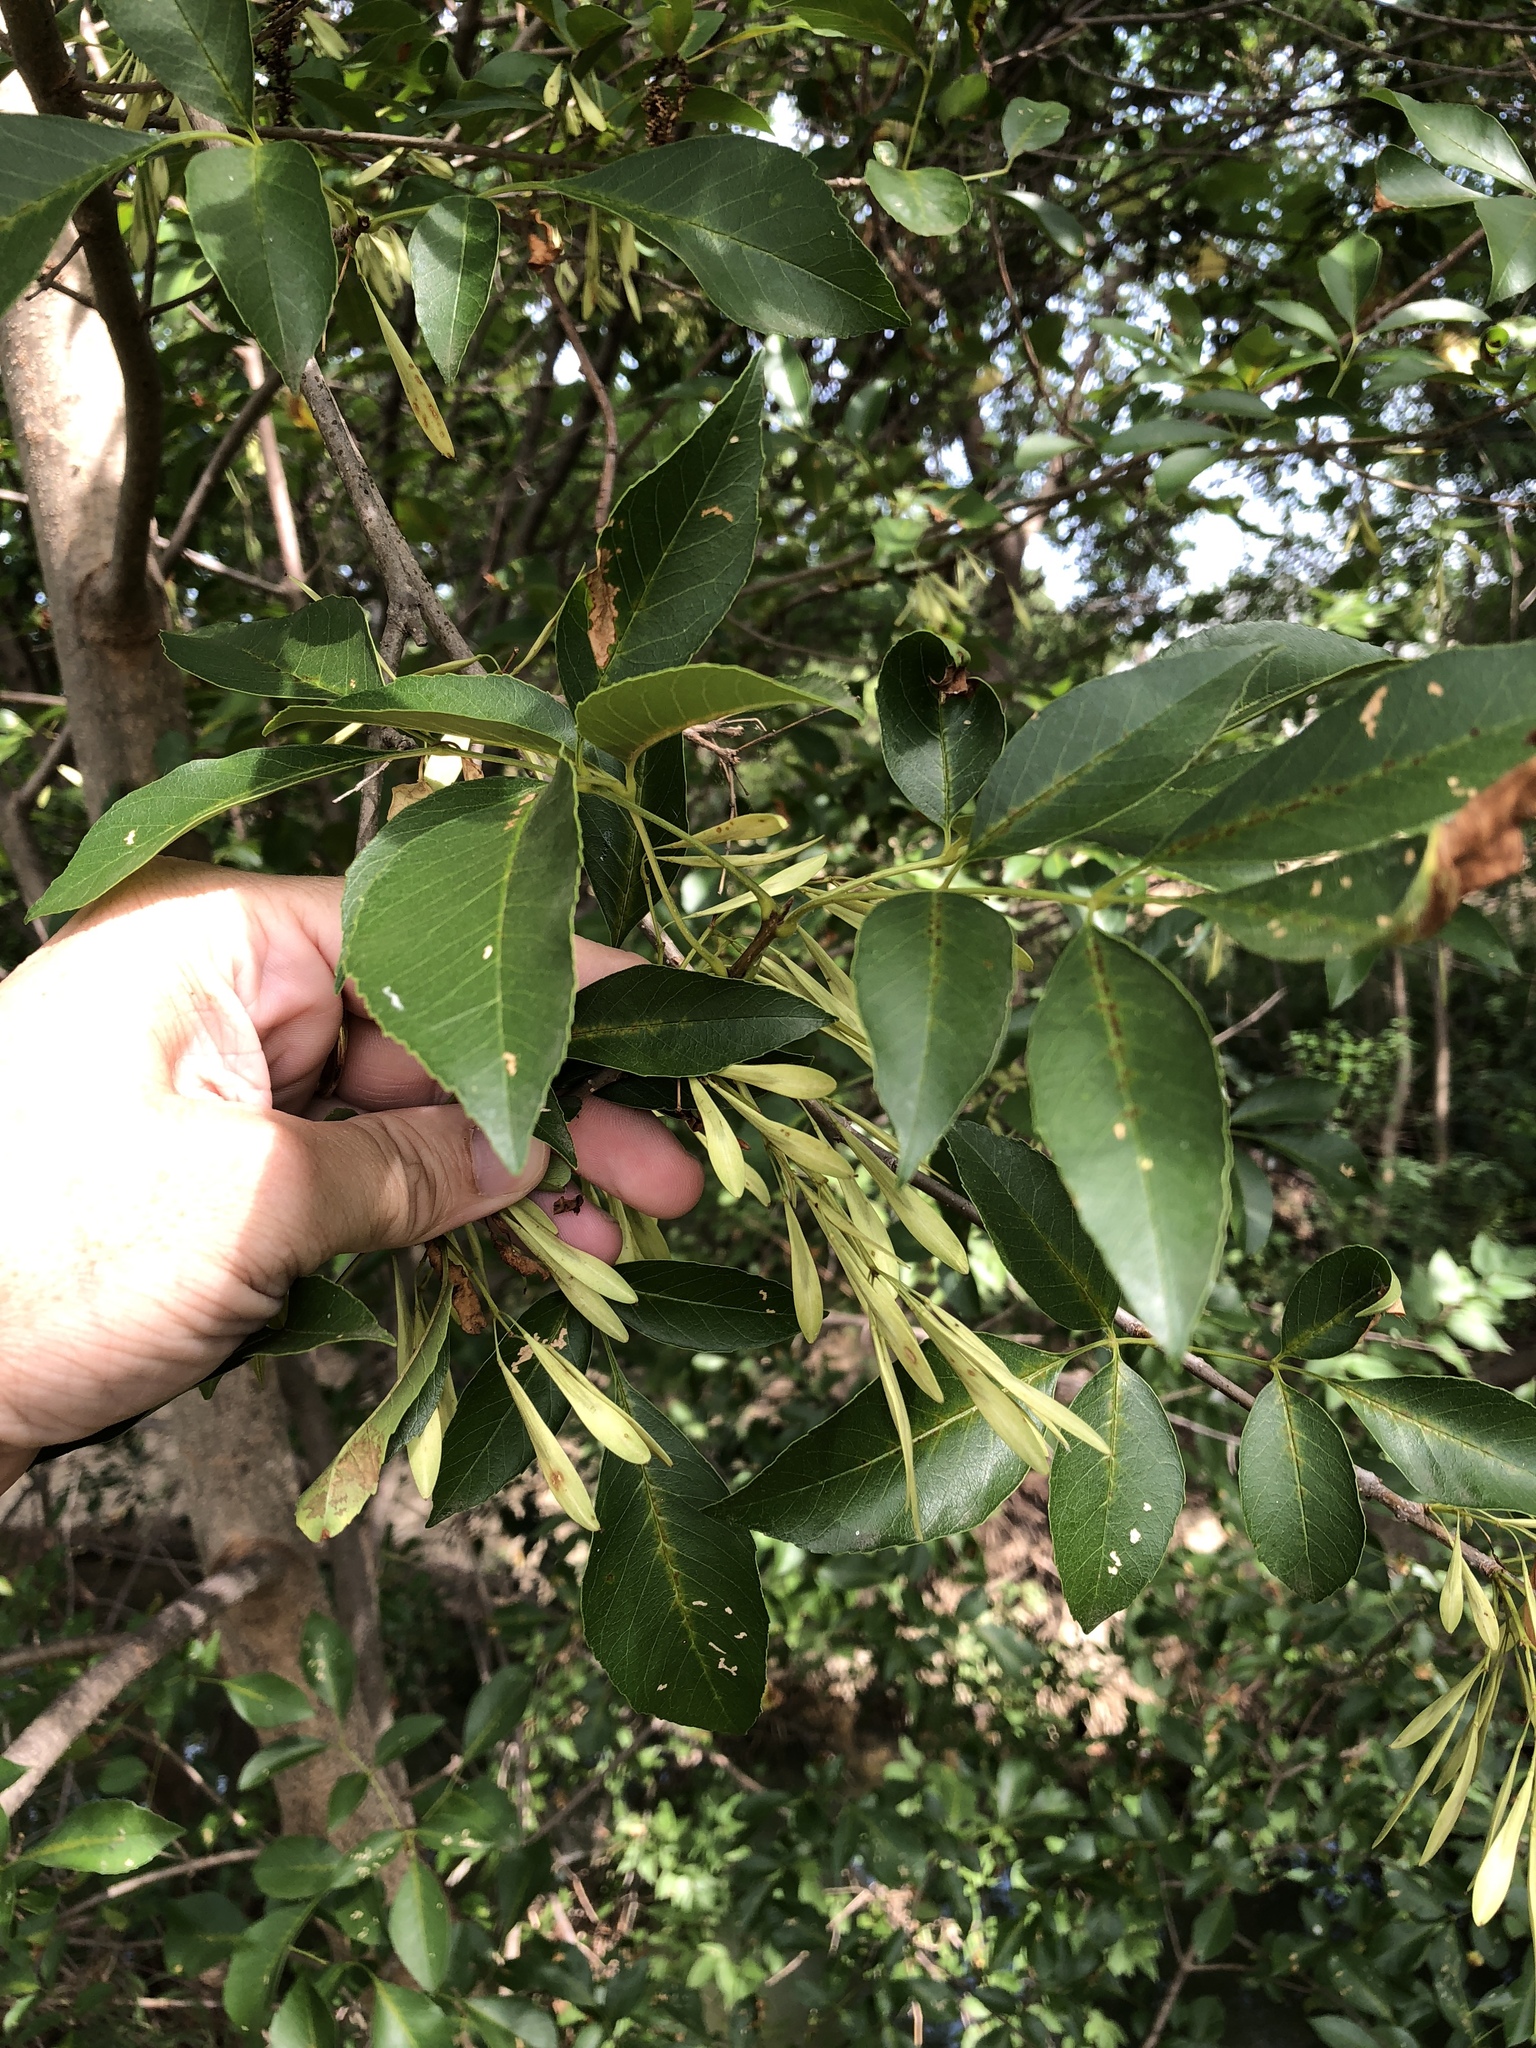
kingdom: Plantae
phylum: Tracheophyta
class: Magnoliopsida
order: Lamiales
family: Oleaceae
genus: Fraxinus
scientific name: Fraxinus pennsylvanica
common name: Green ash
